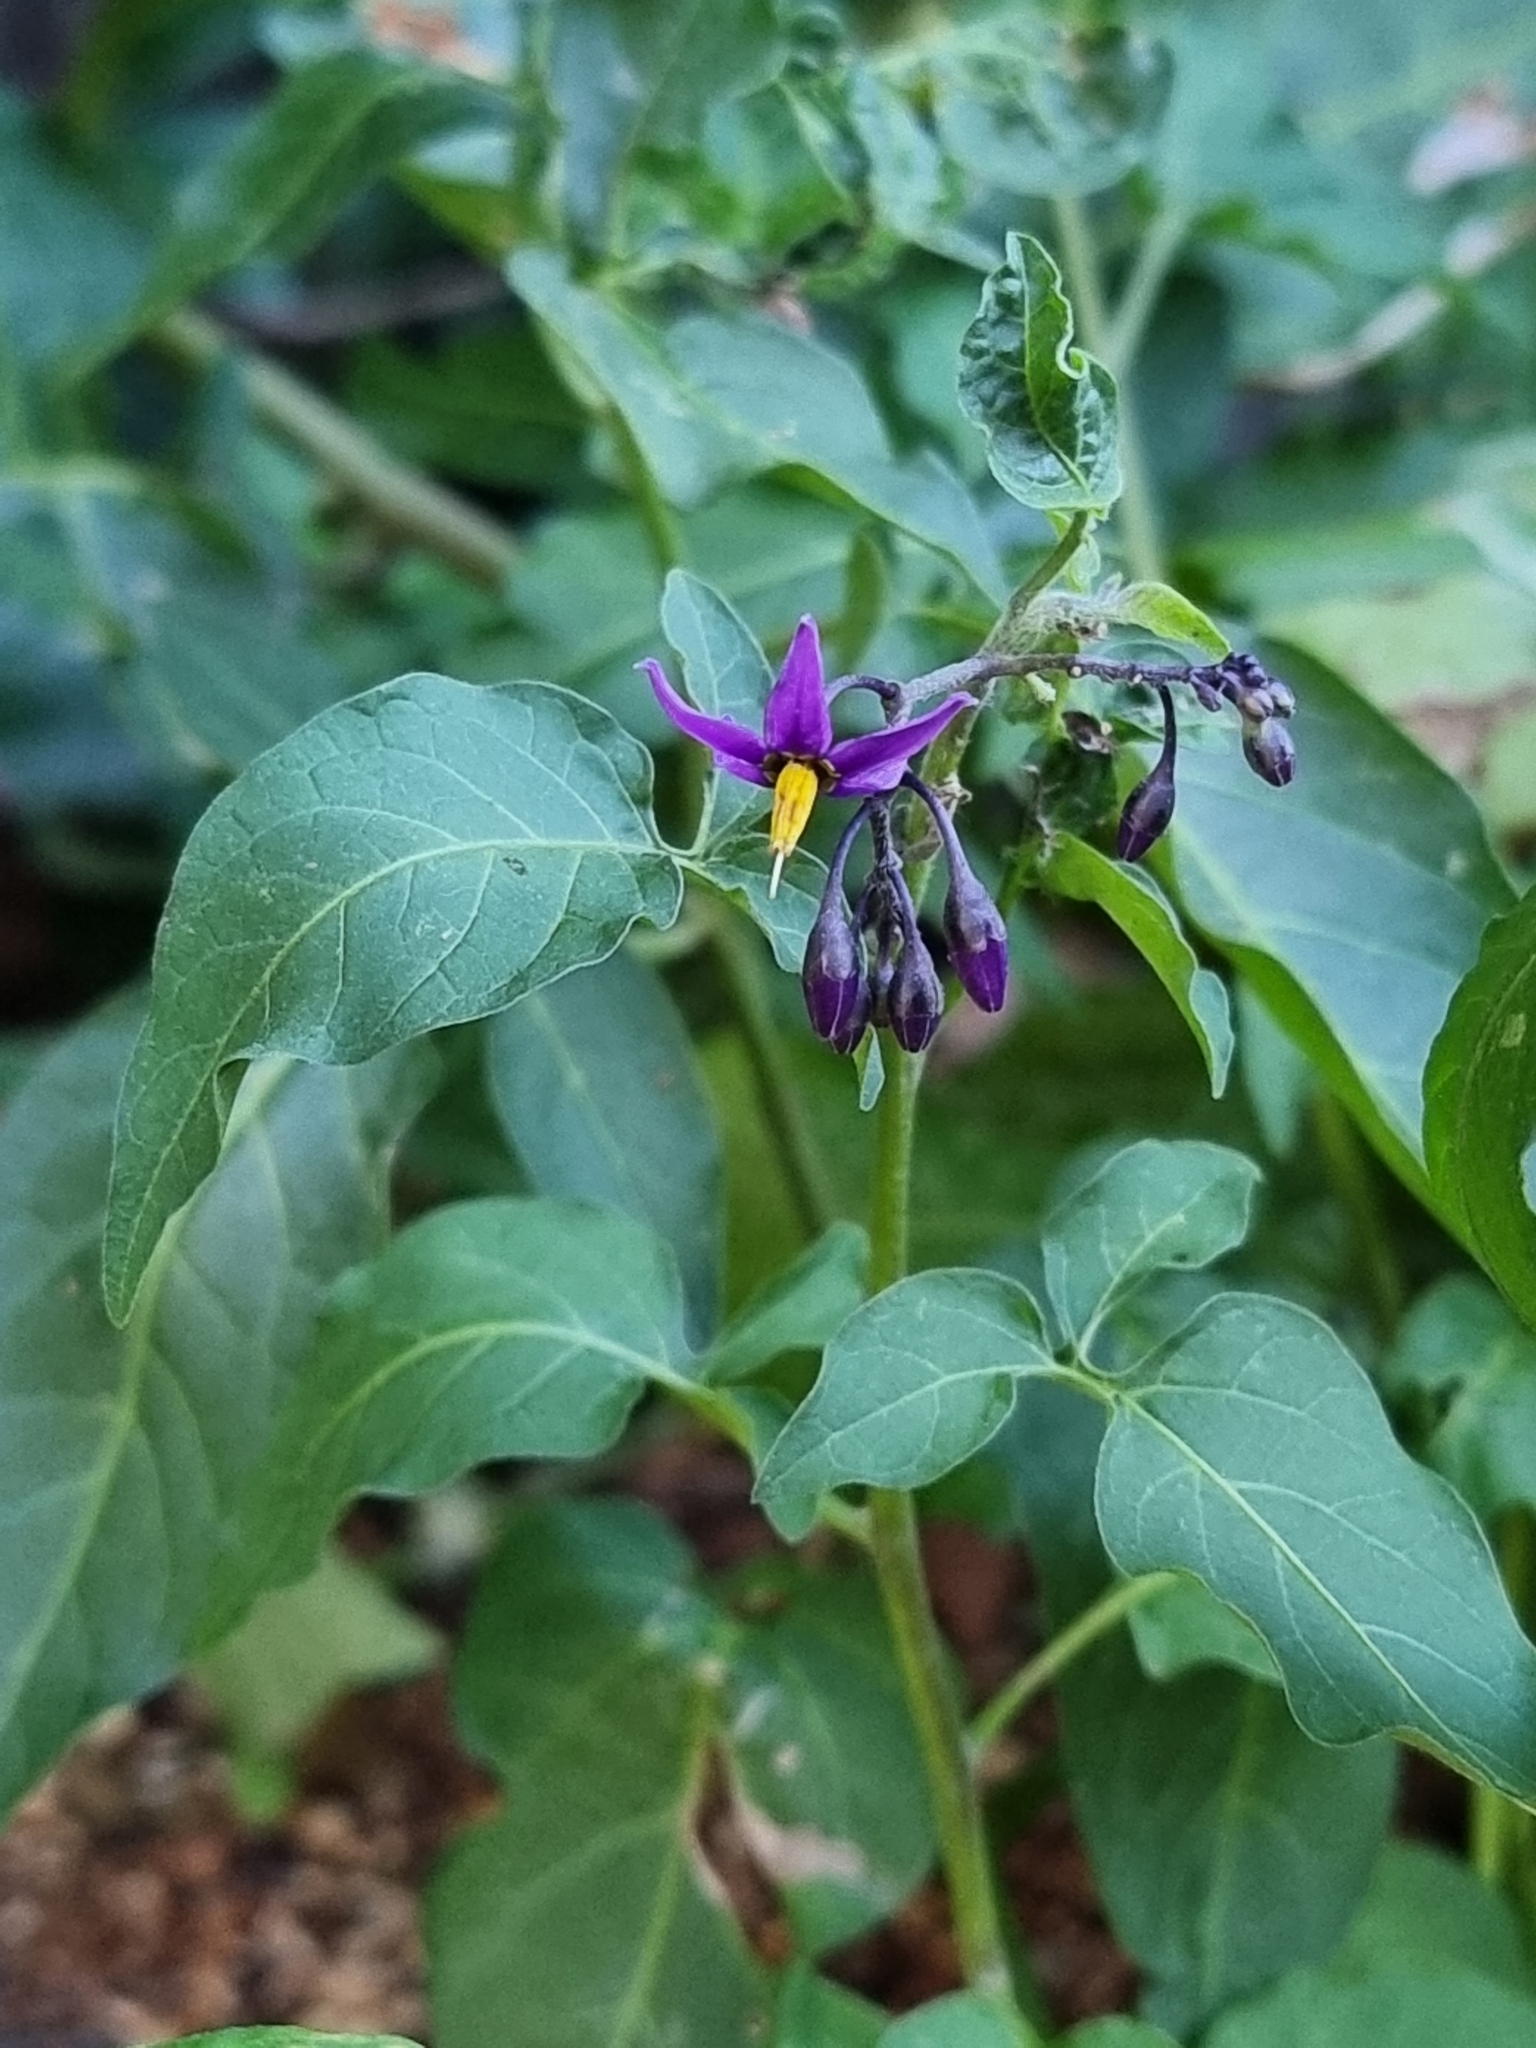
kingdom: Plantae
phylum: Tracheophyta
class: Magnoliopsida
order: Solanales
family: Solanaceae
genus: Solanum
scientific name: Solanum dulcamara
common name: Climbing nightshade
